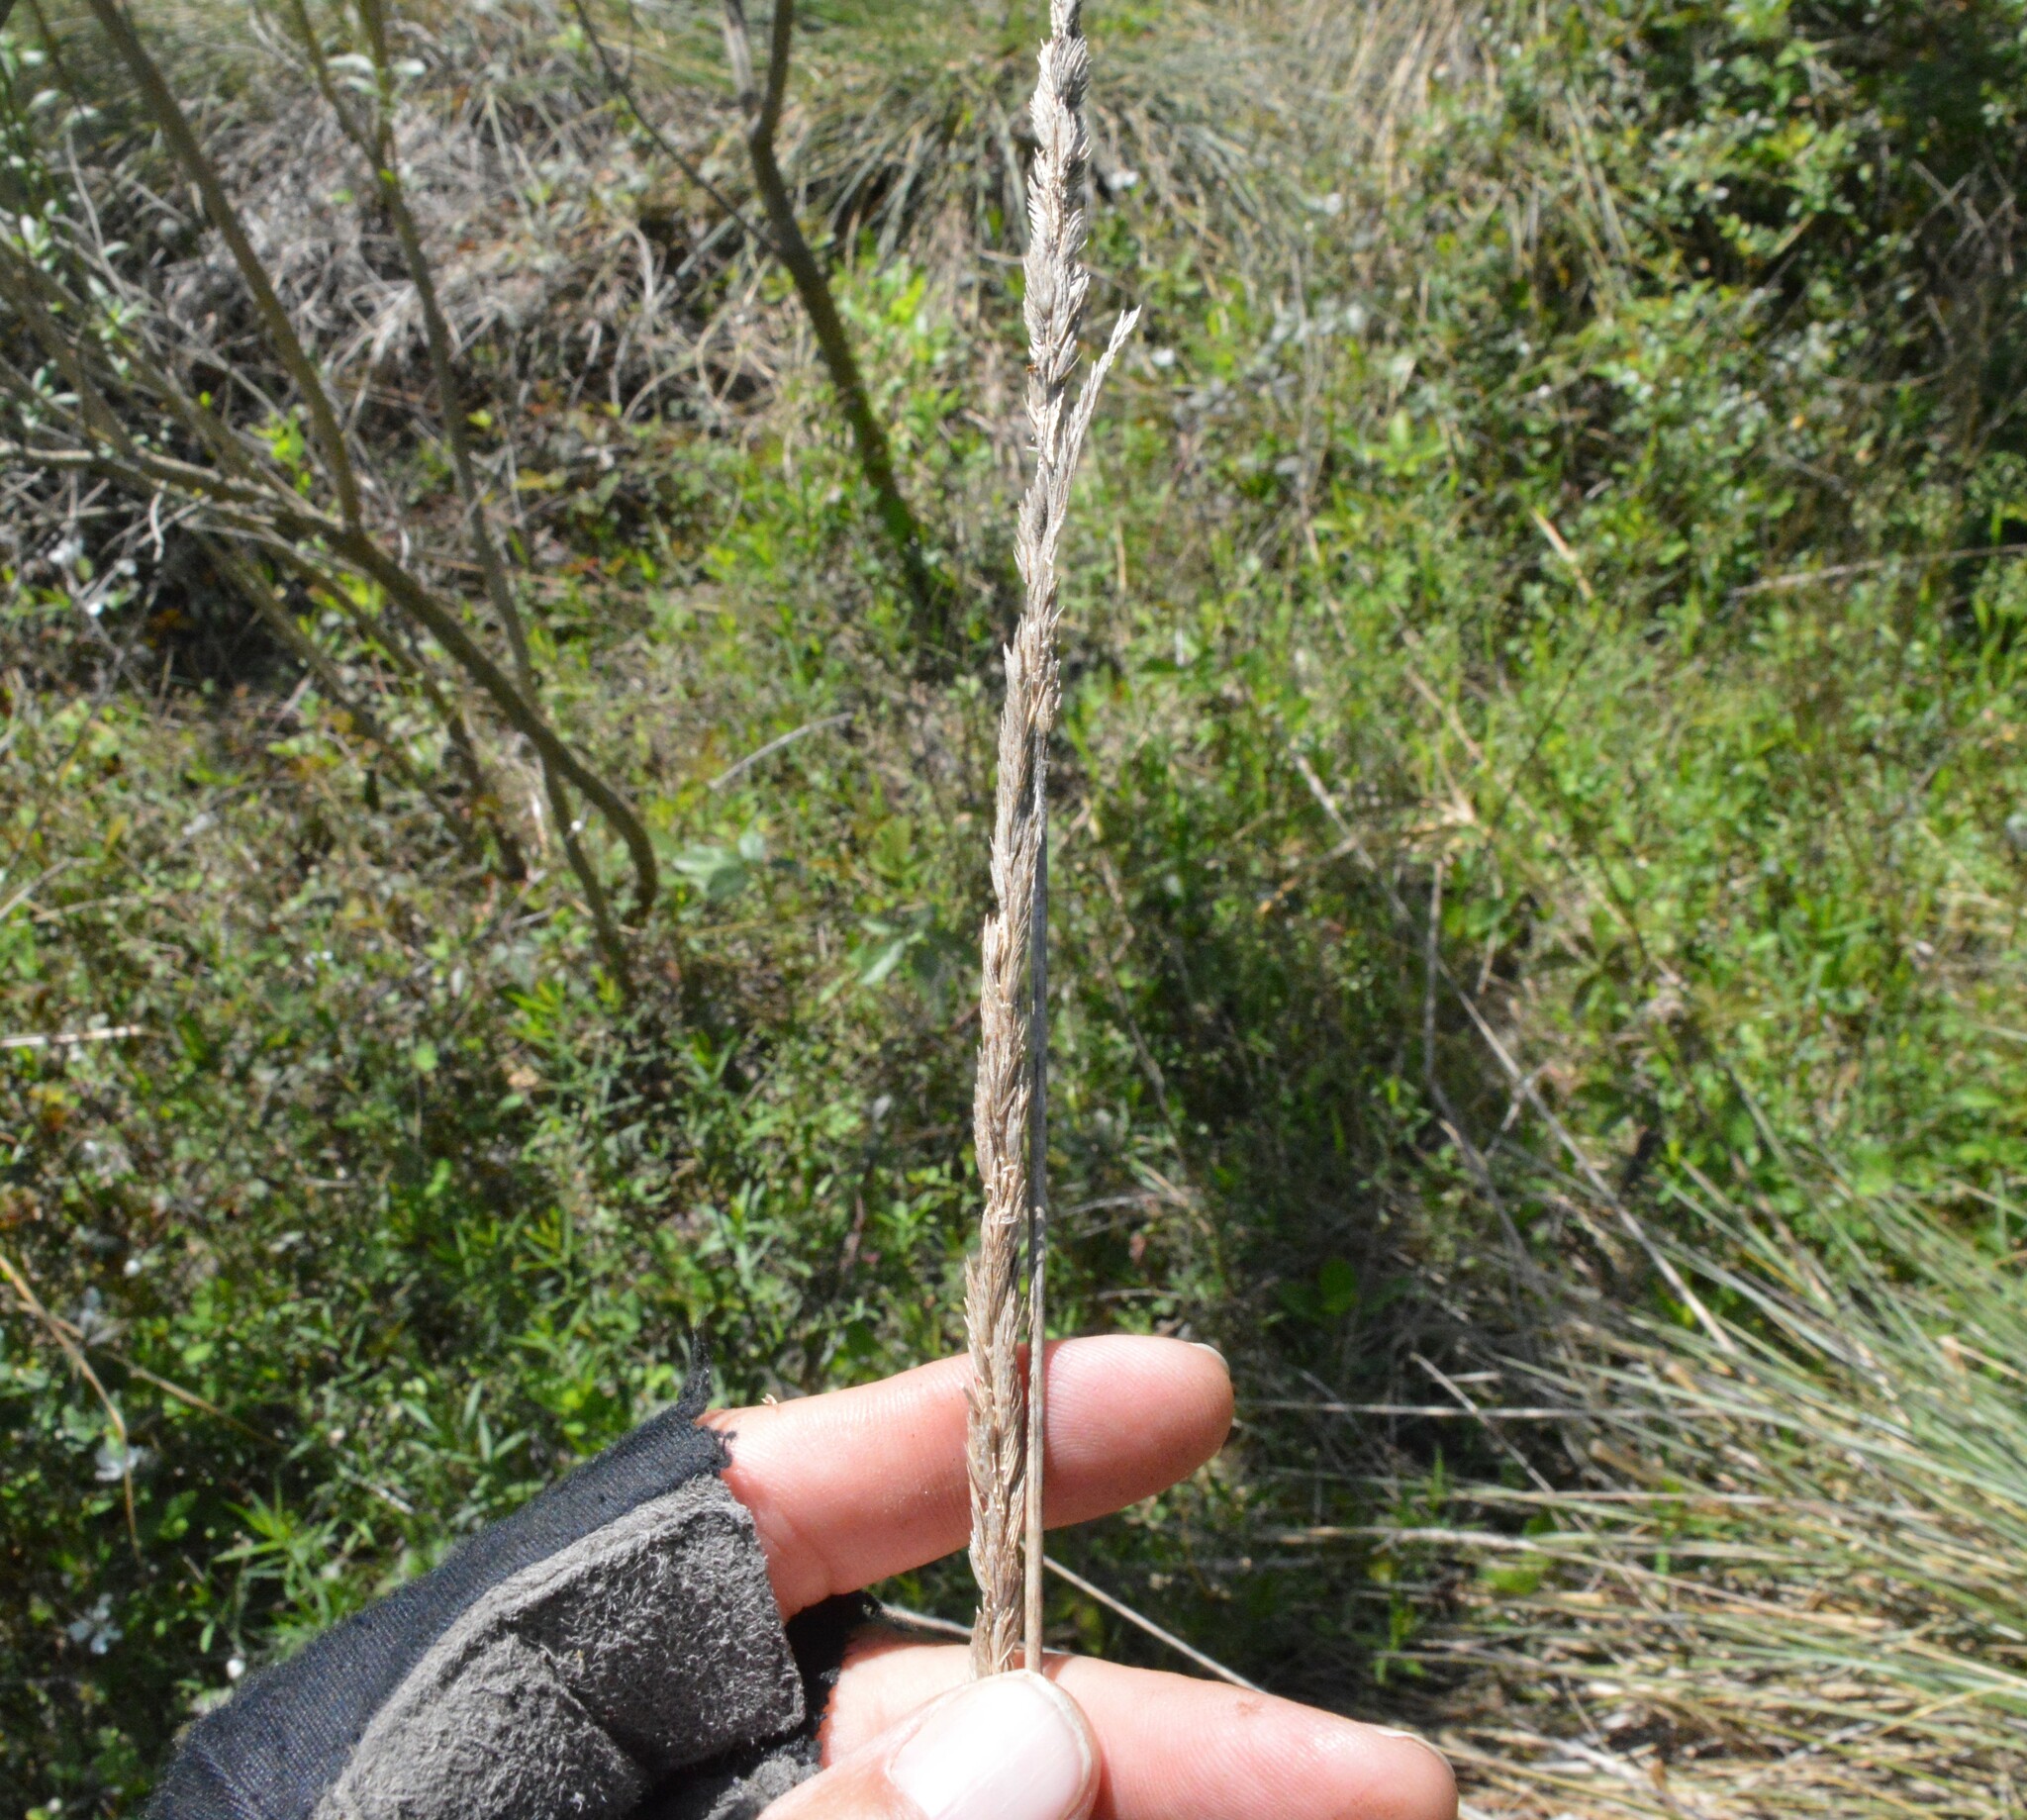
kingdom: Plantae
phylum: Tracheophyta
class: Liliopsida
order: Poales
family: Poaceae
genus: Sporobolus
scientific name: Sporobolus spartinae
